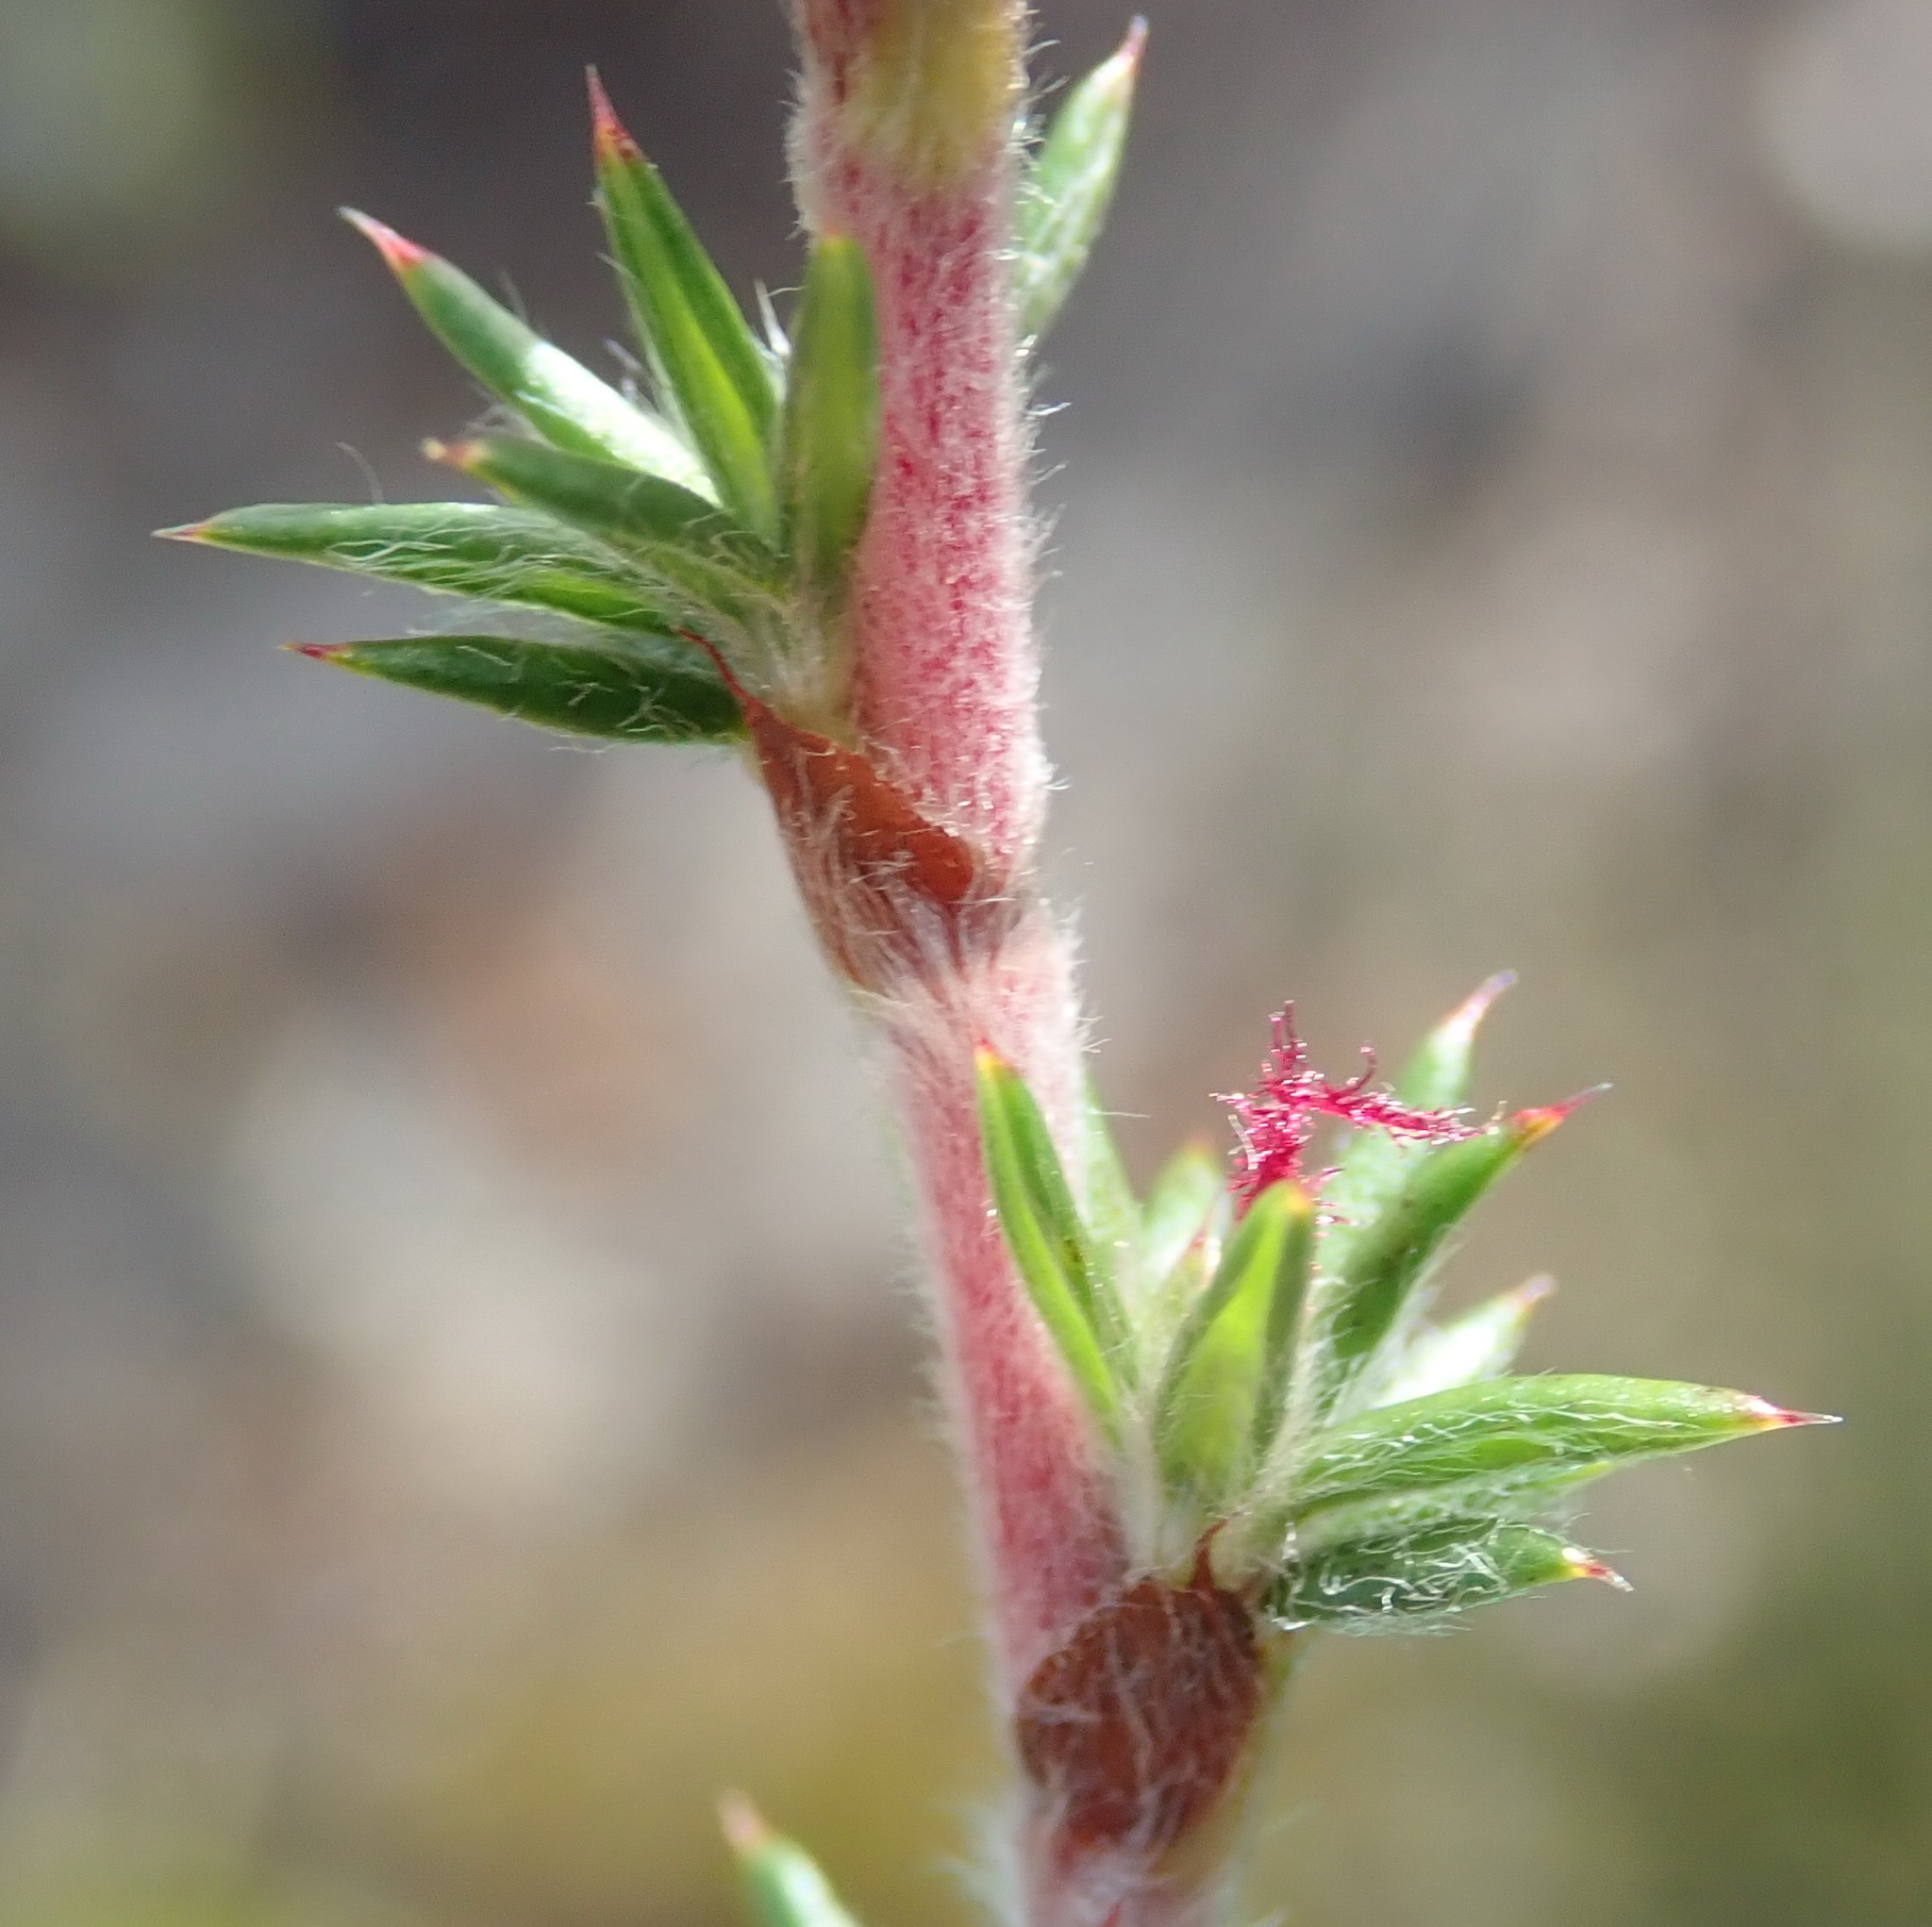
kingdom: Plantae
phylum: Tracheophyta
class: Magnoliopsida
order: Rosales
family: Rosaceae
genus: Cliffortia
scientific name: Cliffortia stricta
